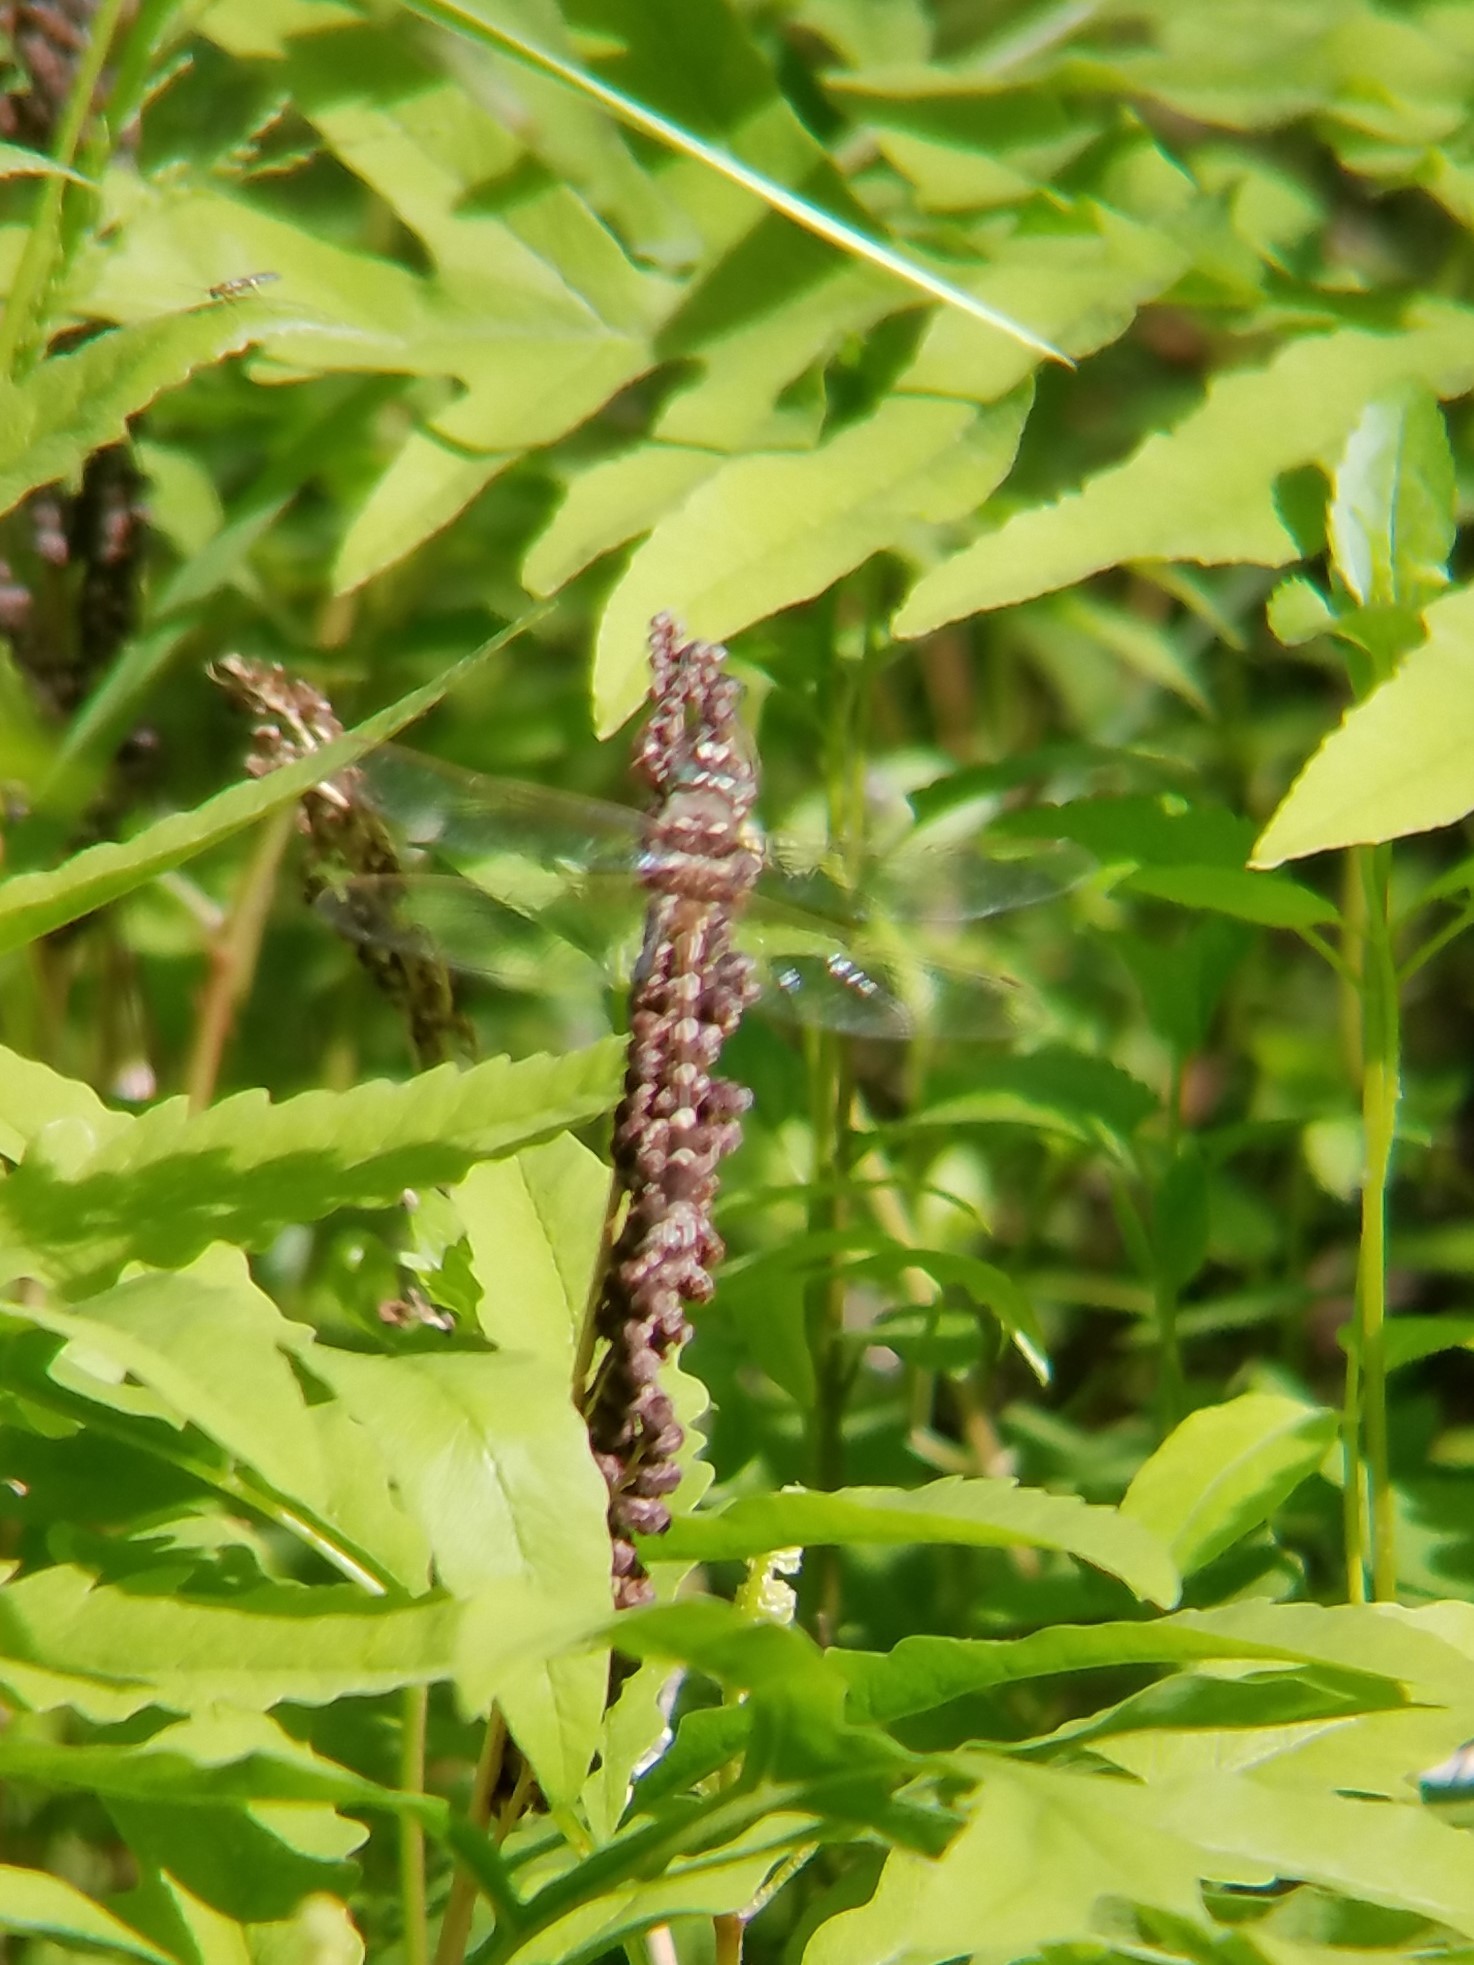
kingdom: Animalia
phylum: Arthropoda
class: Insecta
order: Odonata
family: Macromiidae
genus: Didymops
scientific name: Didymops transversa
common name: Stream cruiser
